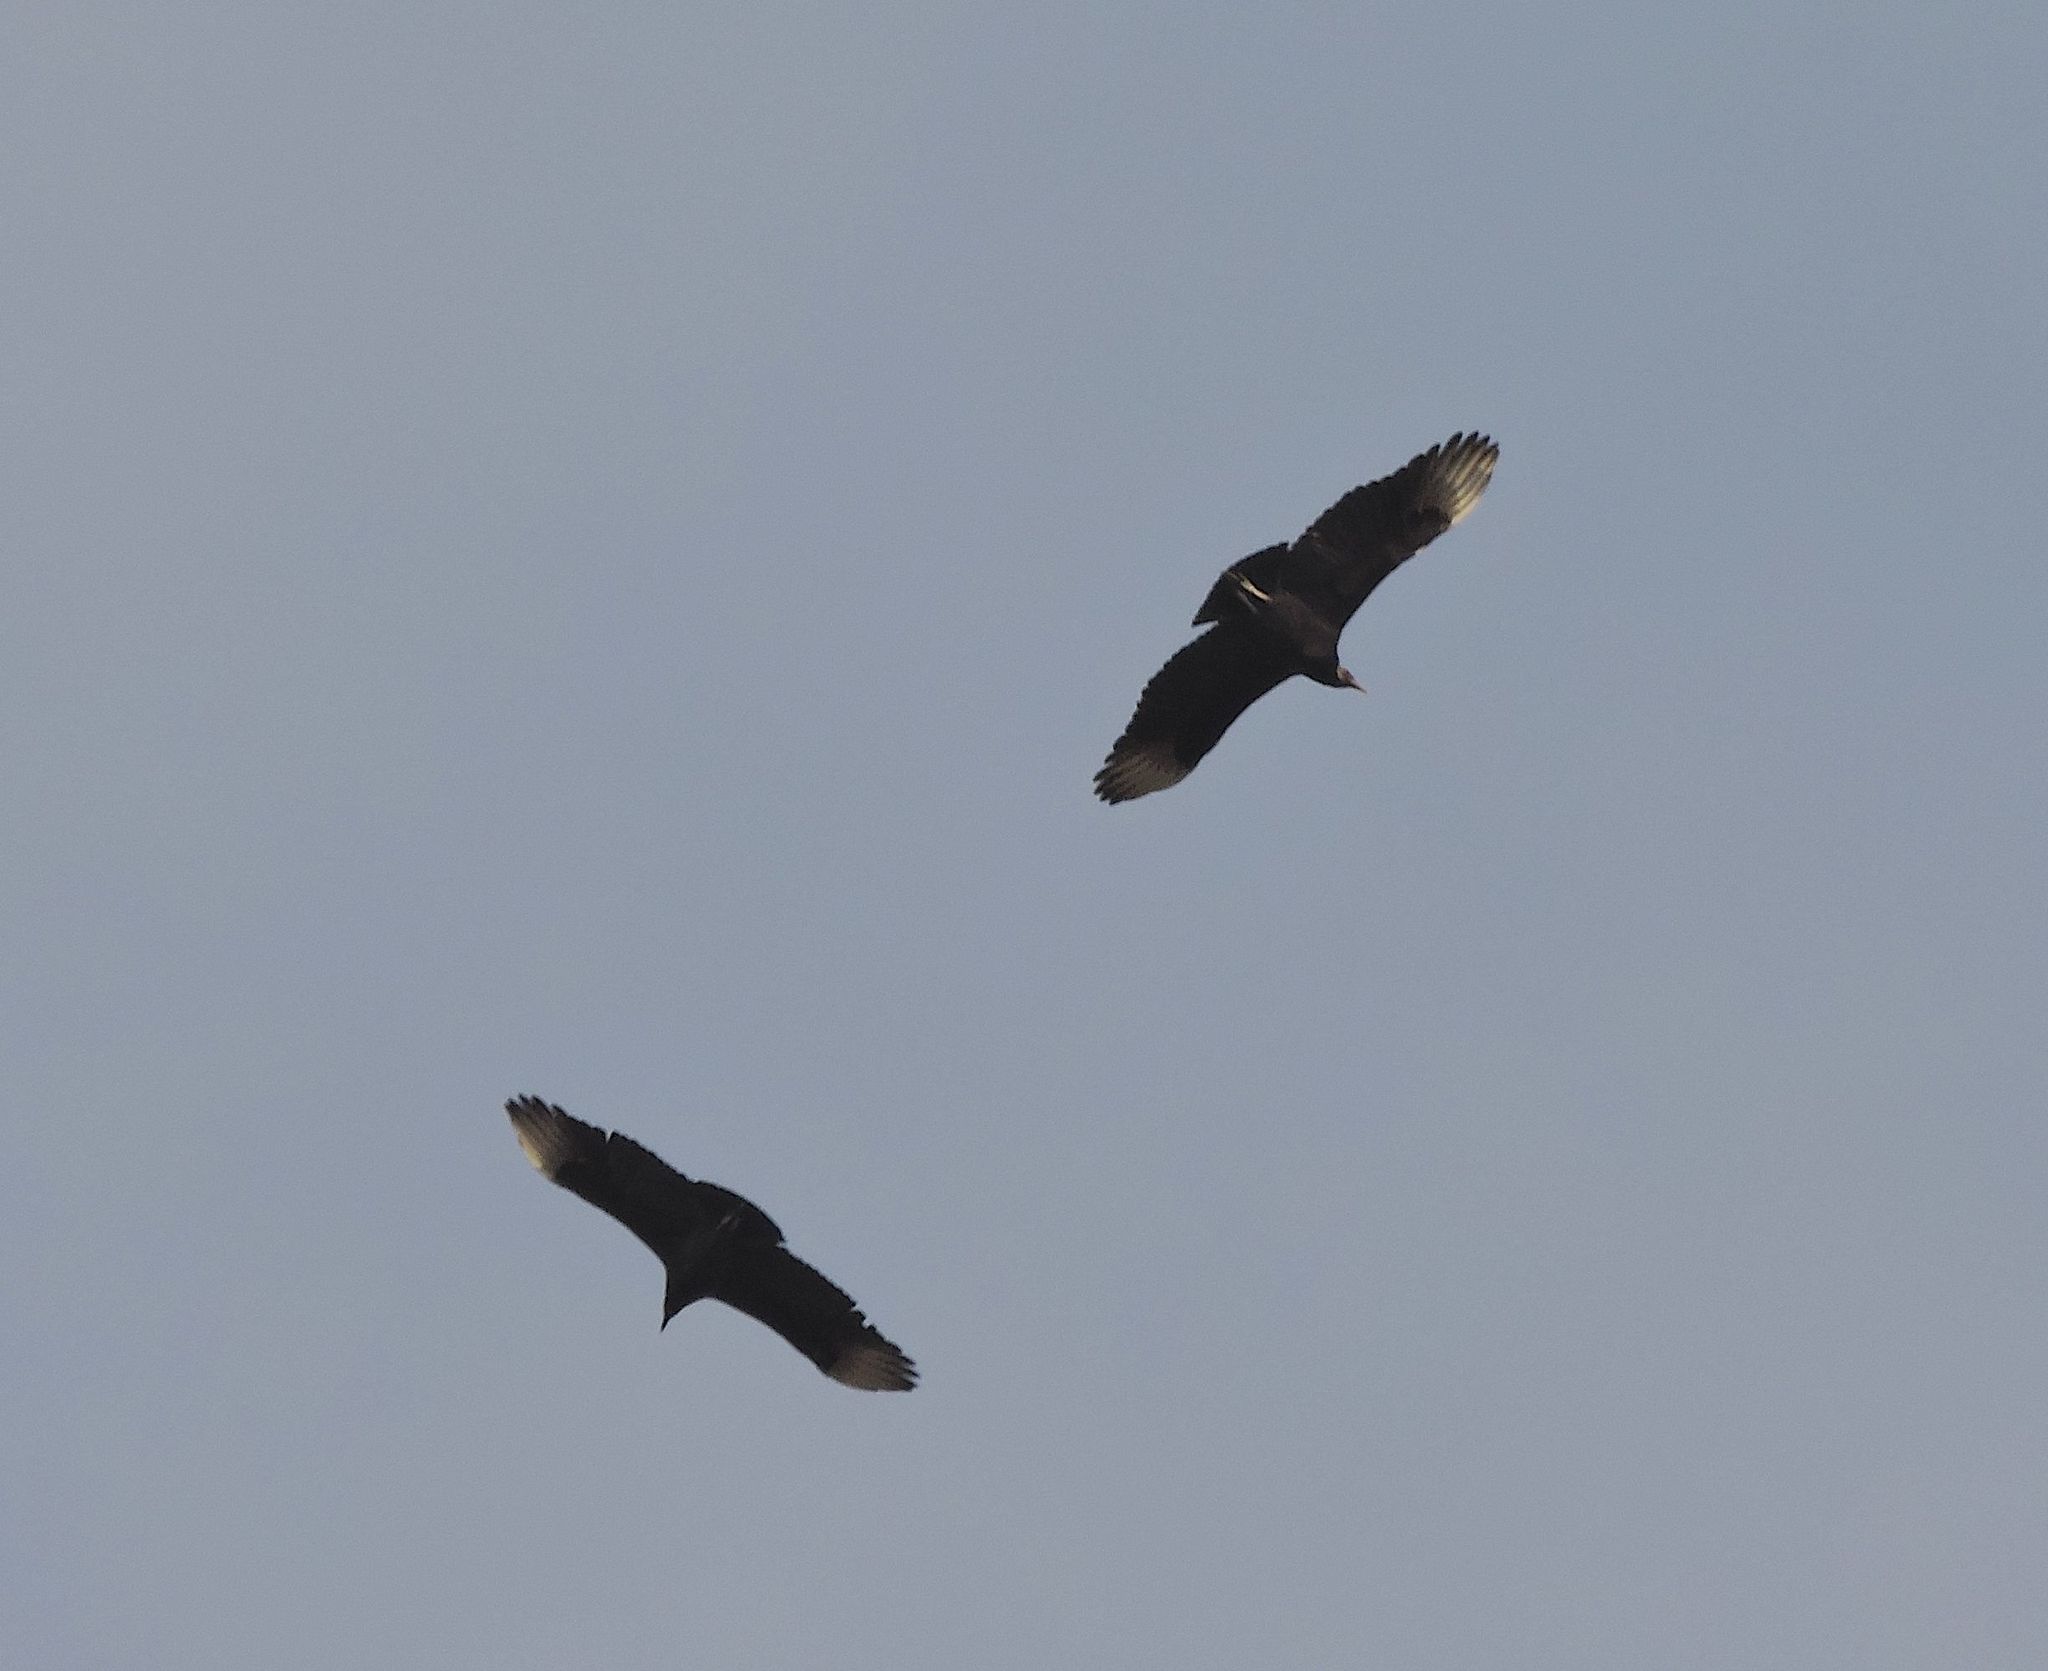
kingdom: Animalia
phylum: Chordata
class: Aves
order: Accipitriformes
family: Cathartidae
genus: Coragyps
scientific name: Coragyps atratus
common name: Black vulture
